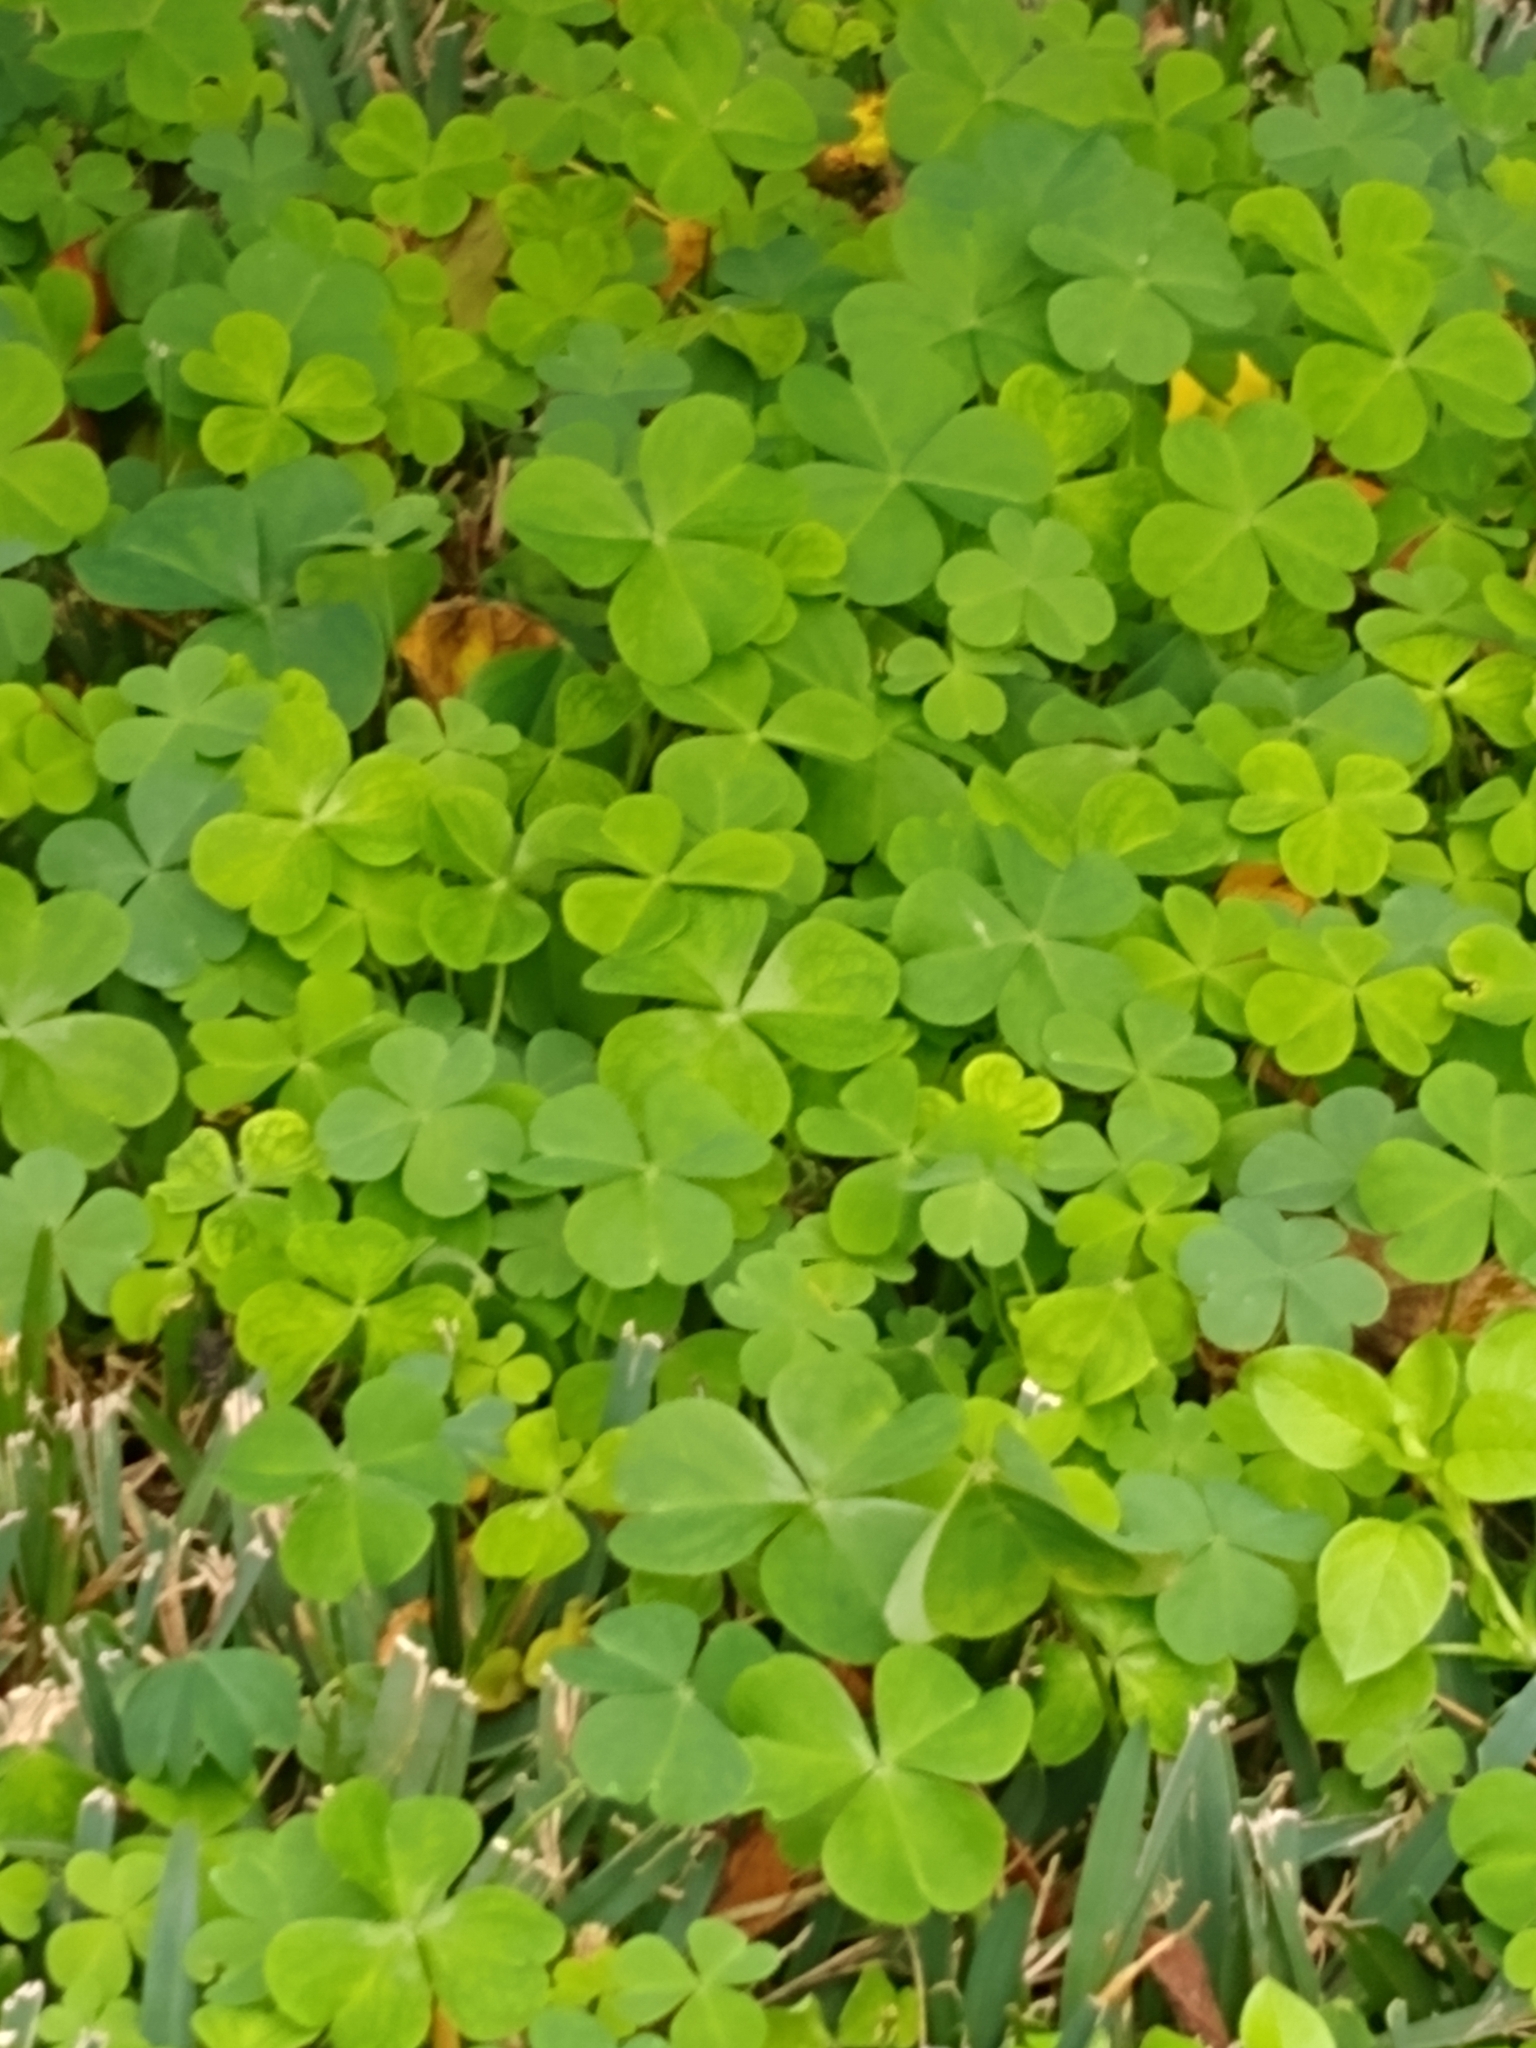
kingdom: Plantae
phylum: Tracheophyta
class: Magnoliopsida
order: Oxalidales
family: Oxalidaceae
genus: Oxalis
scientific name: Oxalis debilis
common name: Large-flowered pink-sorrel
